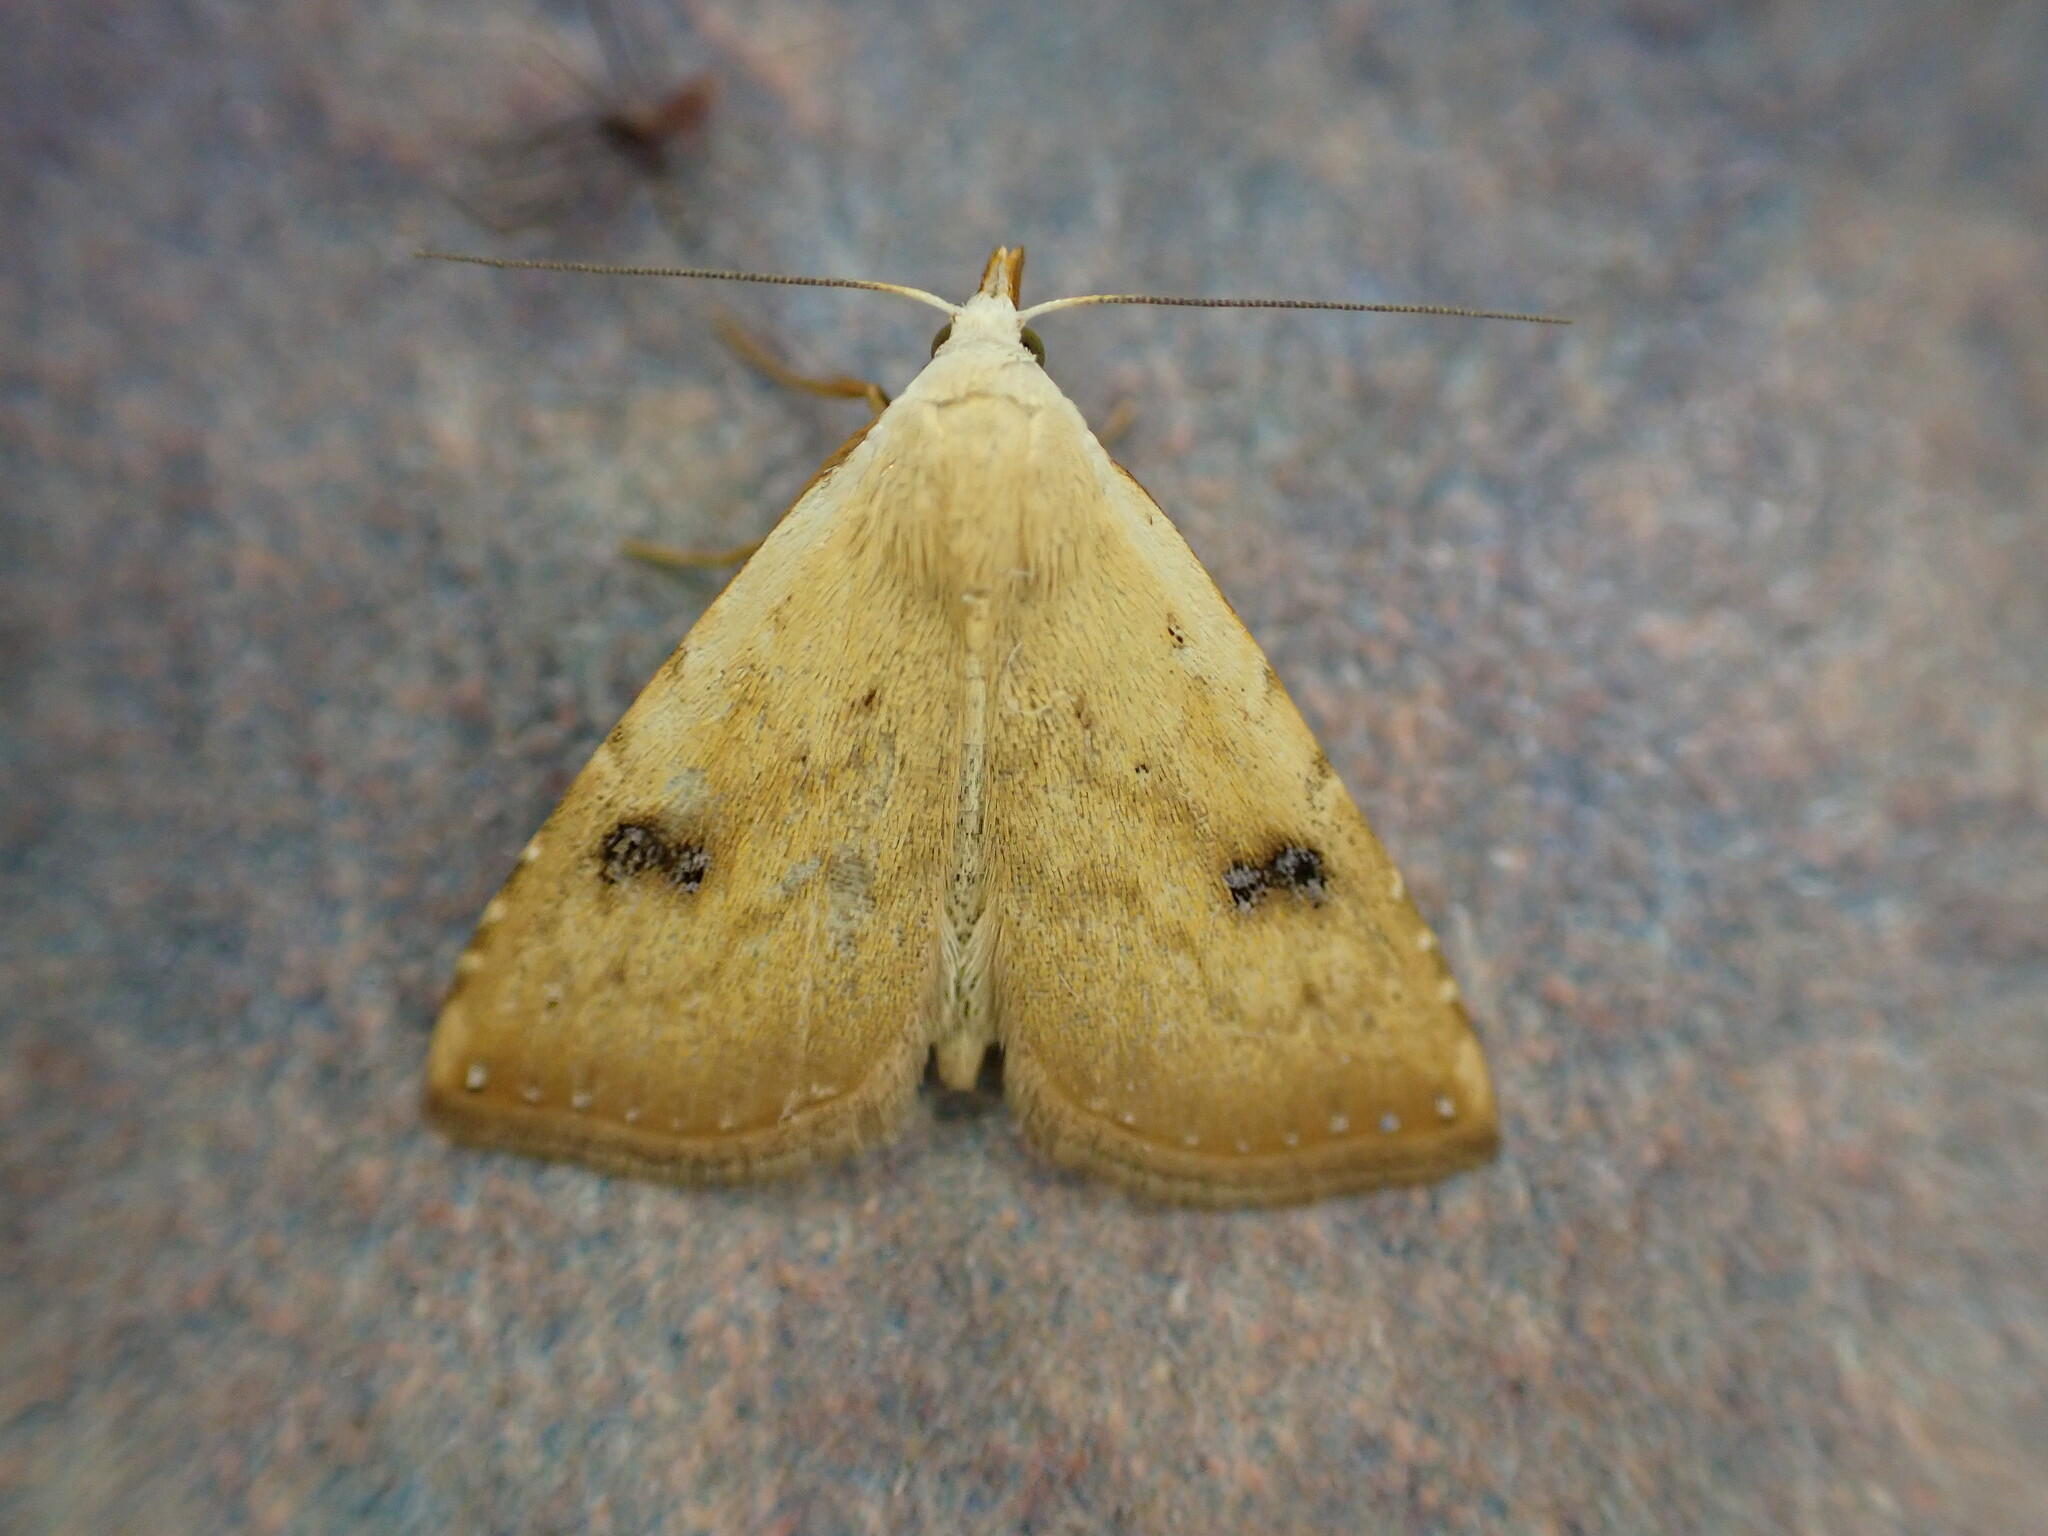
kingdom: Animalia
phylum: Arthropoda
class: Insecta
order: Lepidoptera
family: Erebidae
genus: Rivula
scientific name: Rivula sericealis
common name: Straw dot
